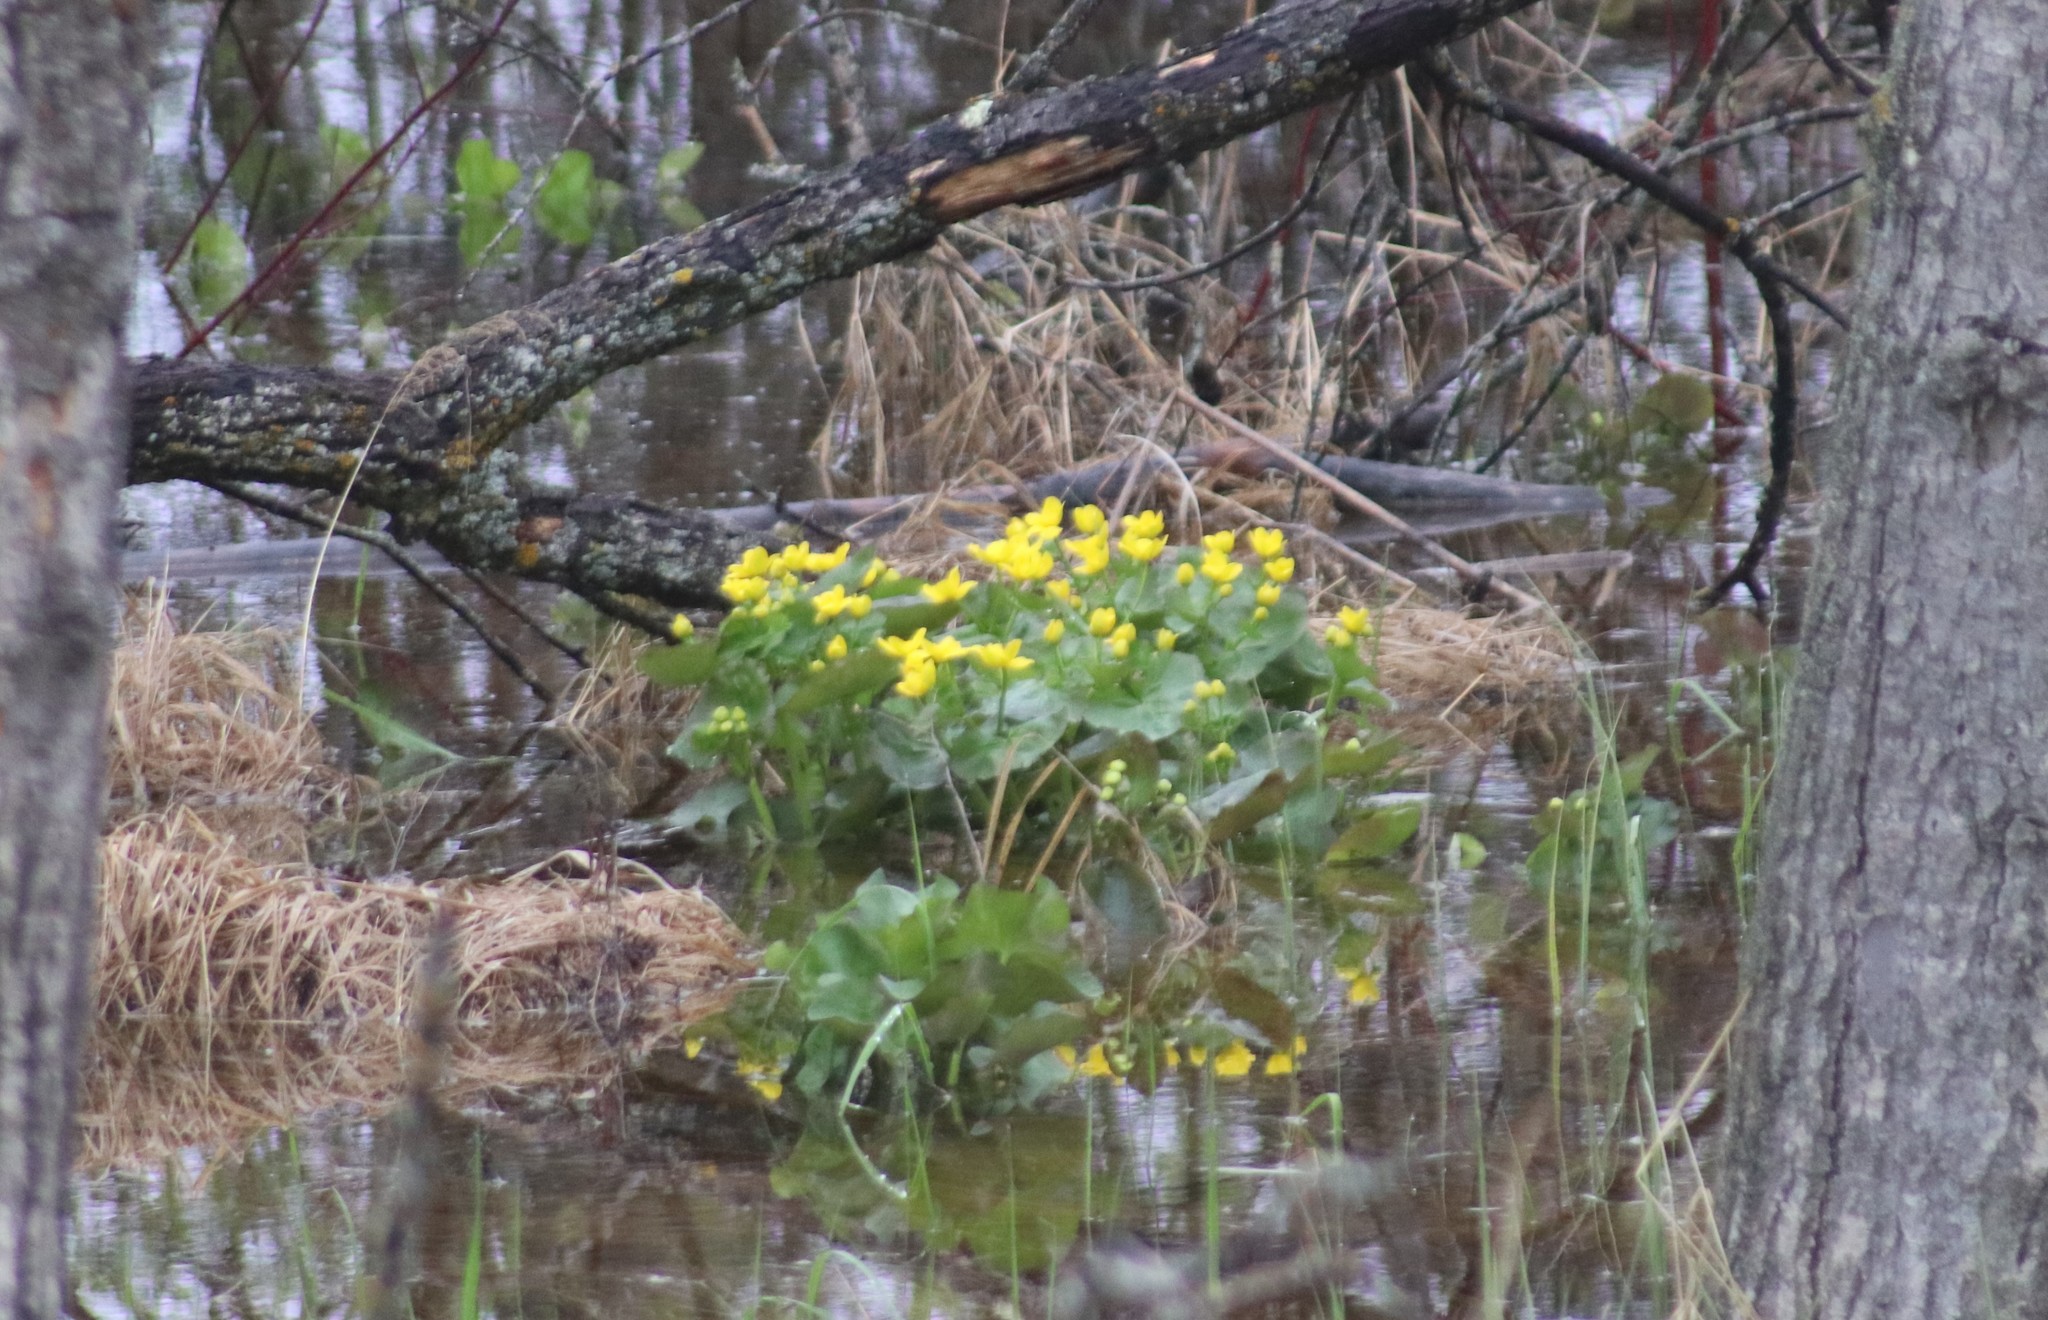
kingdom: Plantae
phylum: Tracheophyta
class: Magnoliopsida
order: Ranunculales
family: Ranunculaceae
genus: Caltha
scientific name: Caltha palustris
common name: Marsh marigold
